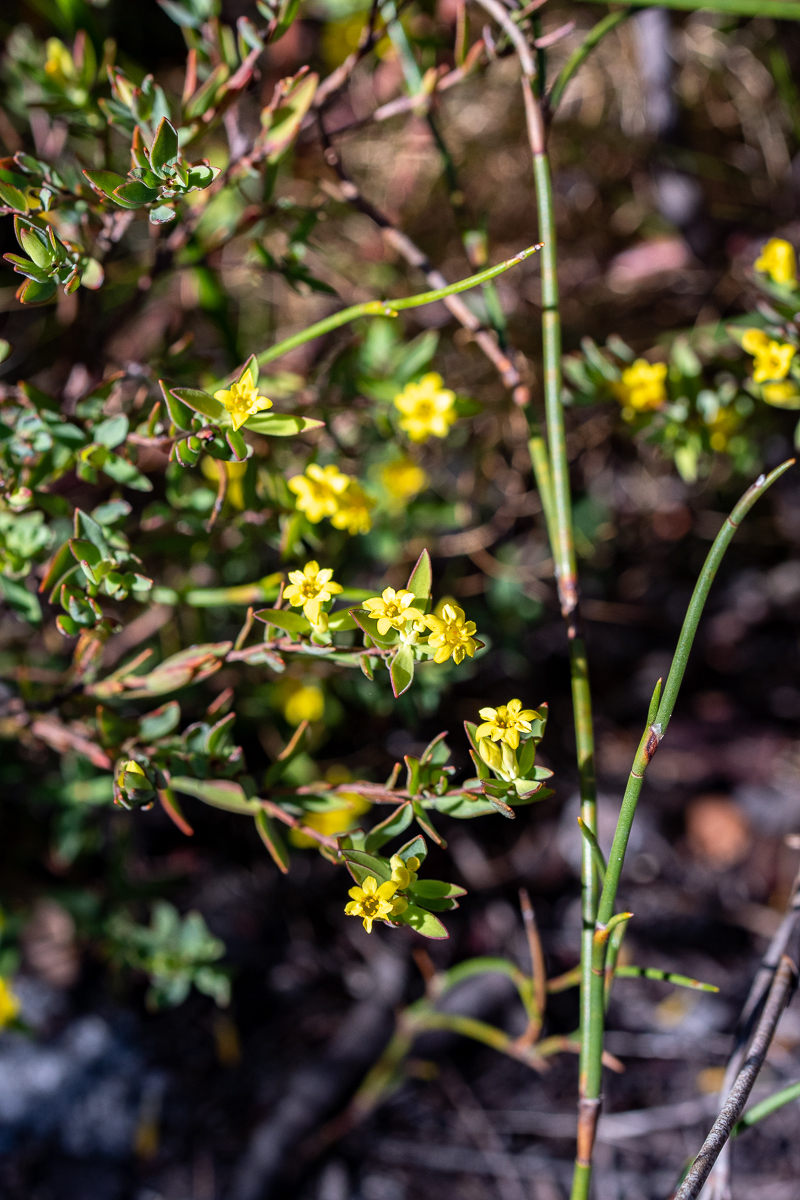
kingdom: Plantae
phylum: Tracheophyta
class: Magnoliopsida
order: Malvales
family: Thymelaeaceae
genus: Gnidia
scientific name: Gnidia juniperifolia
